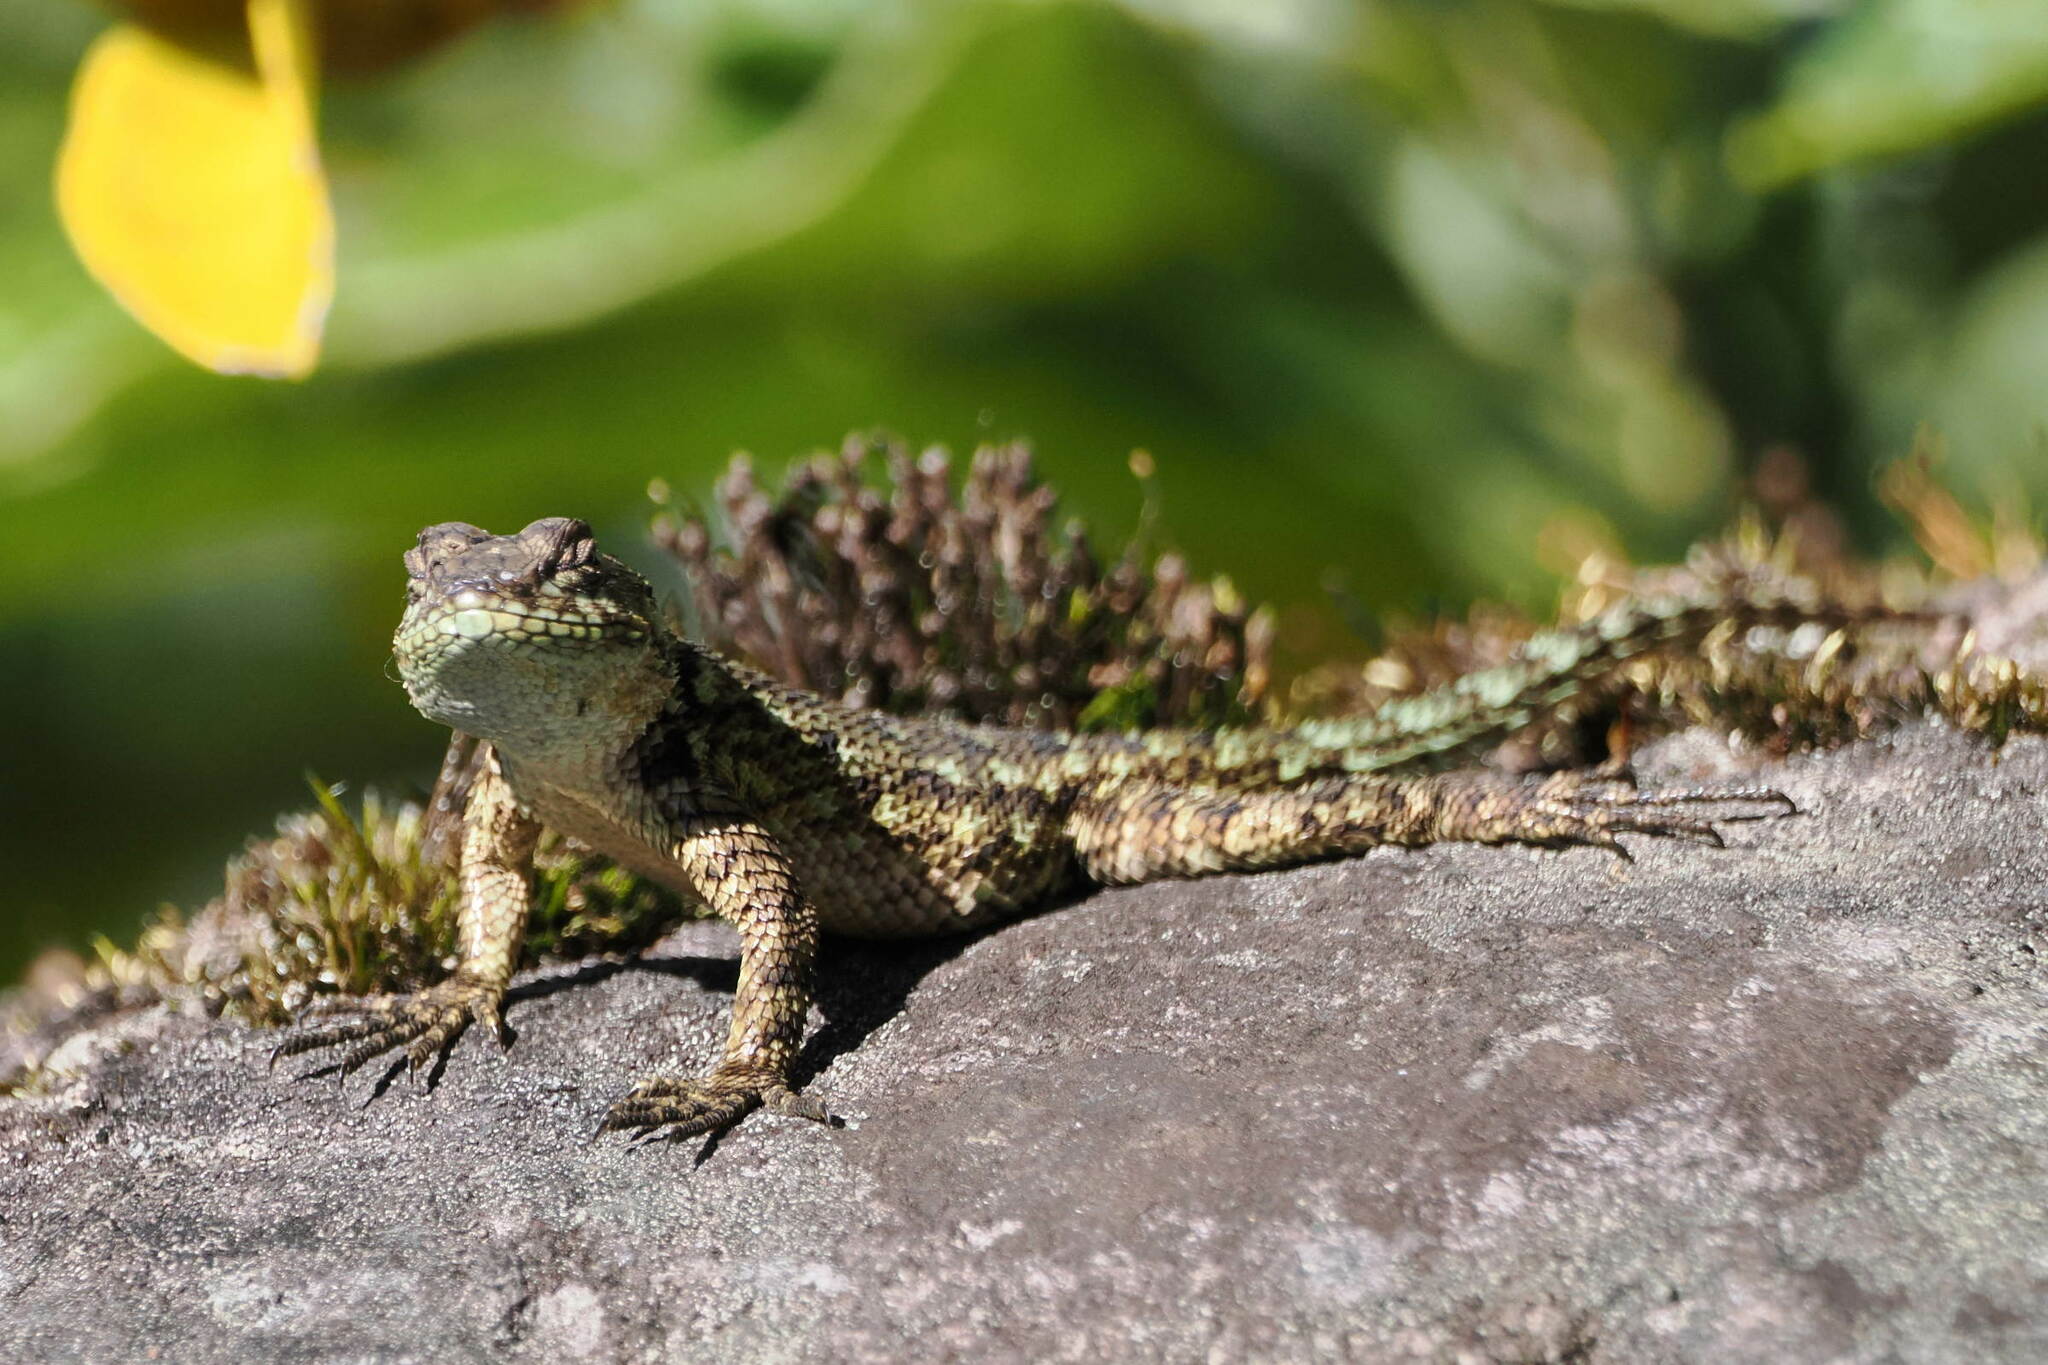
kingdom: Animalia
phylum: Chordata
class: Squamata
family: Phrynosomatidae
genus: Sceloporus
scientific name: Sceloporus malachiticus
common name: Green spiny lizard
